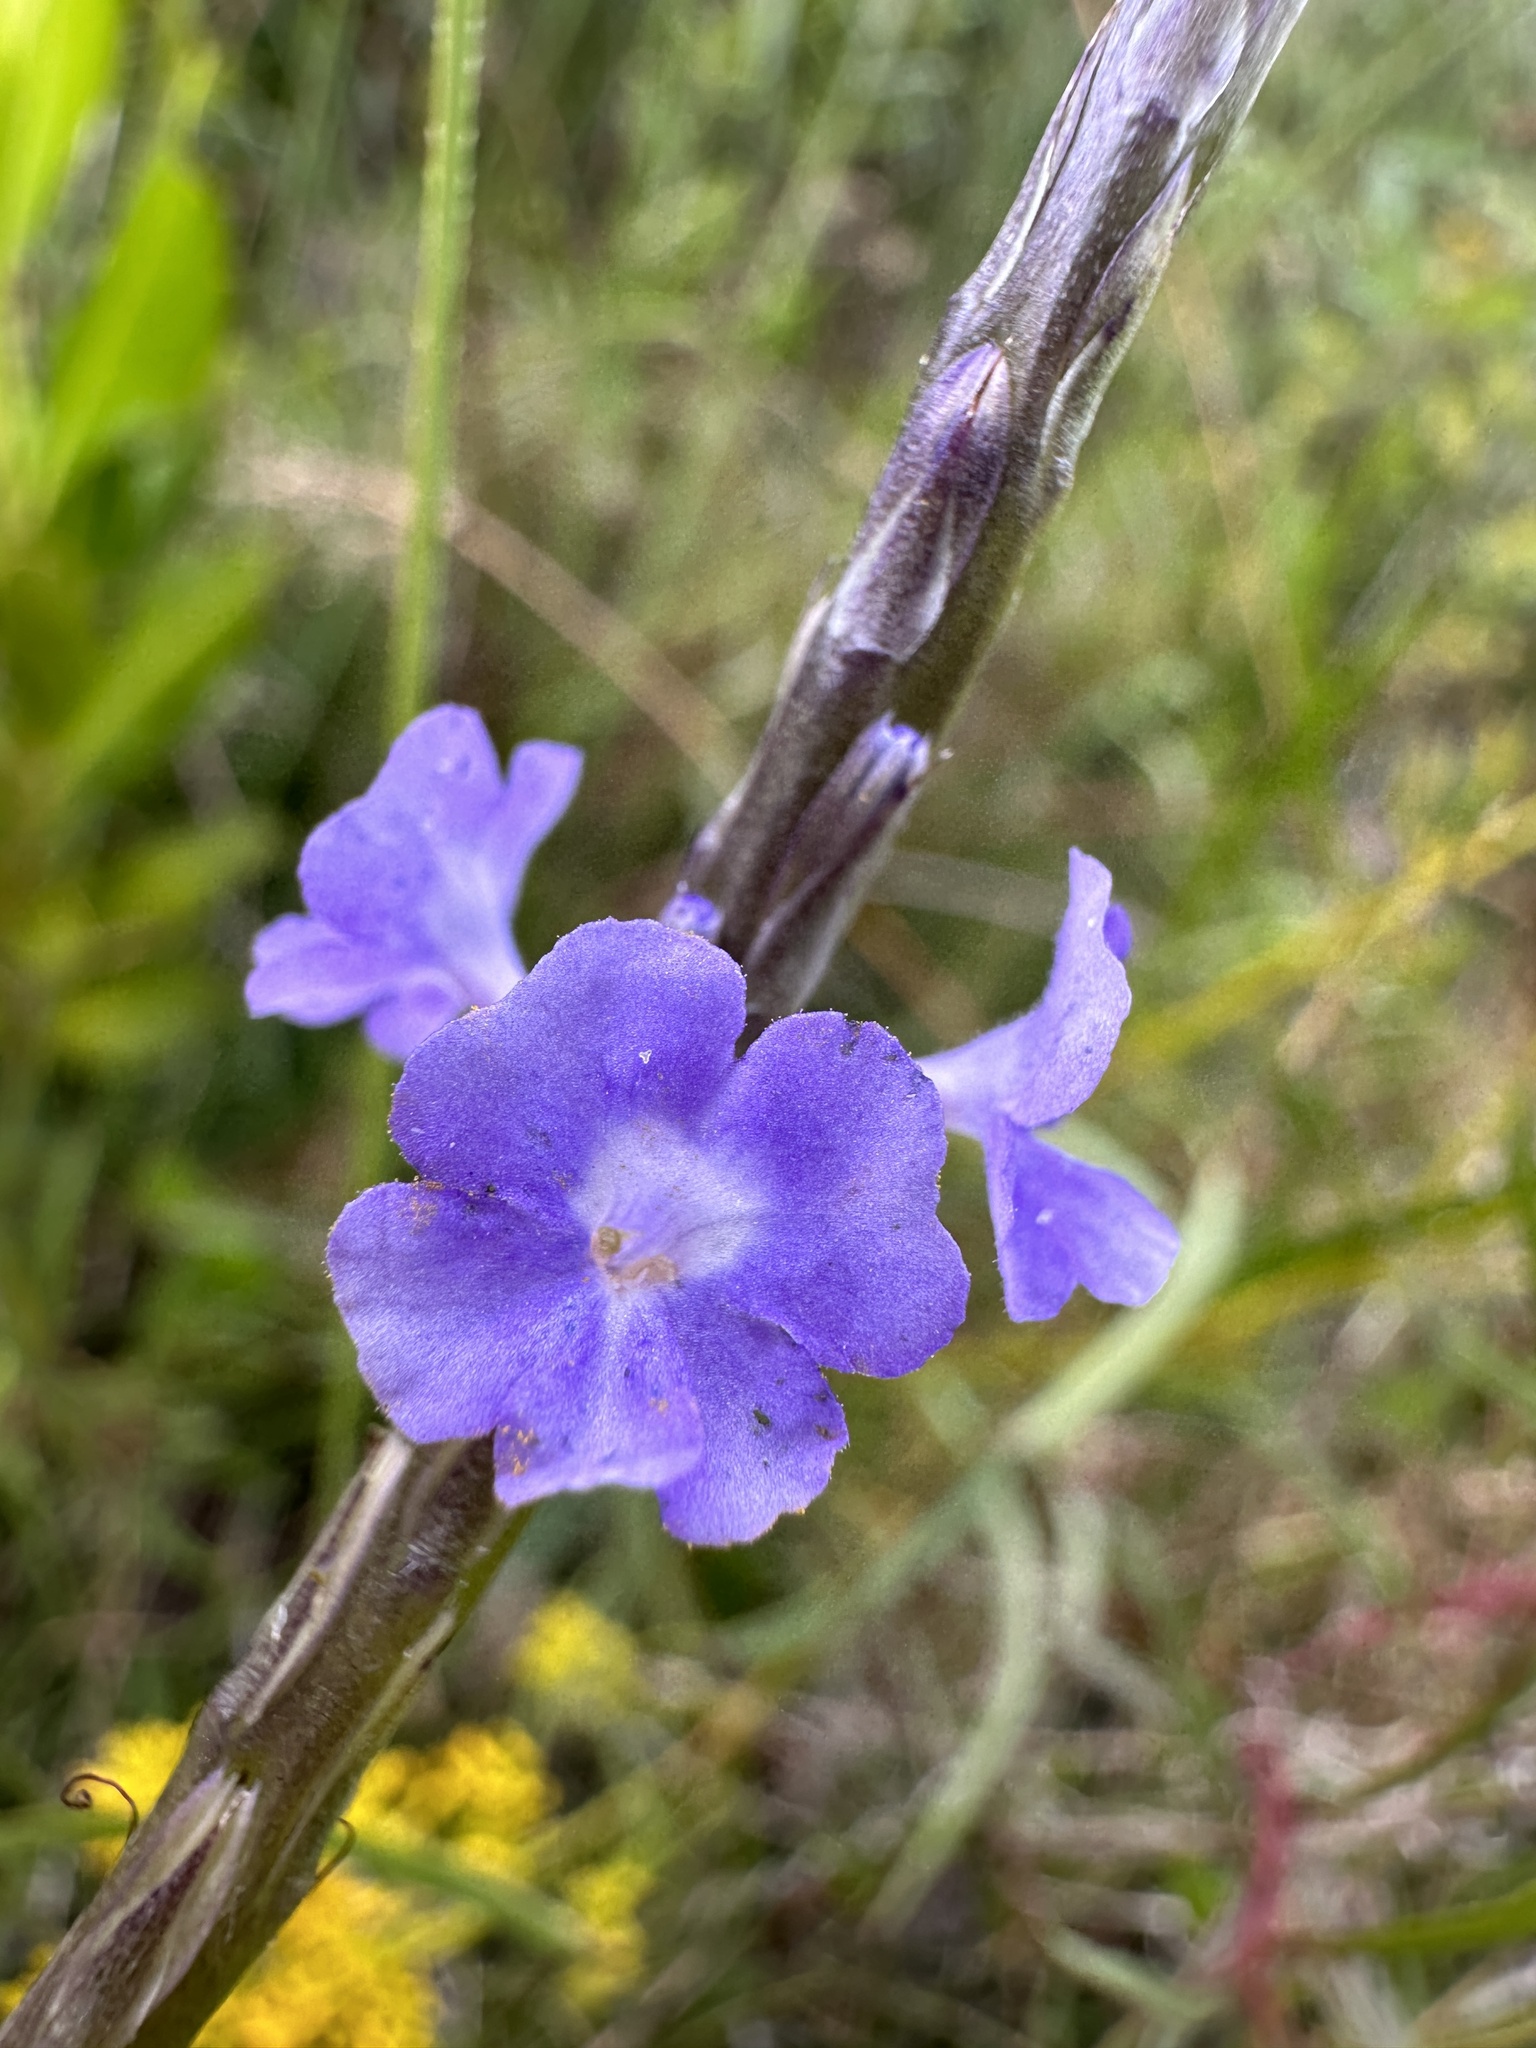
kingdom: Plantae
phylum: Tracheophyta
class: Magnoliopsida
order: Lamiales
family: Verbenaceae
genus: Stachytarpheta
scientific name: Stachytarpheta jamaicensis
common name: Light-blue snakeweed
